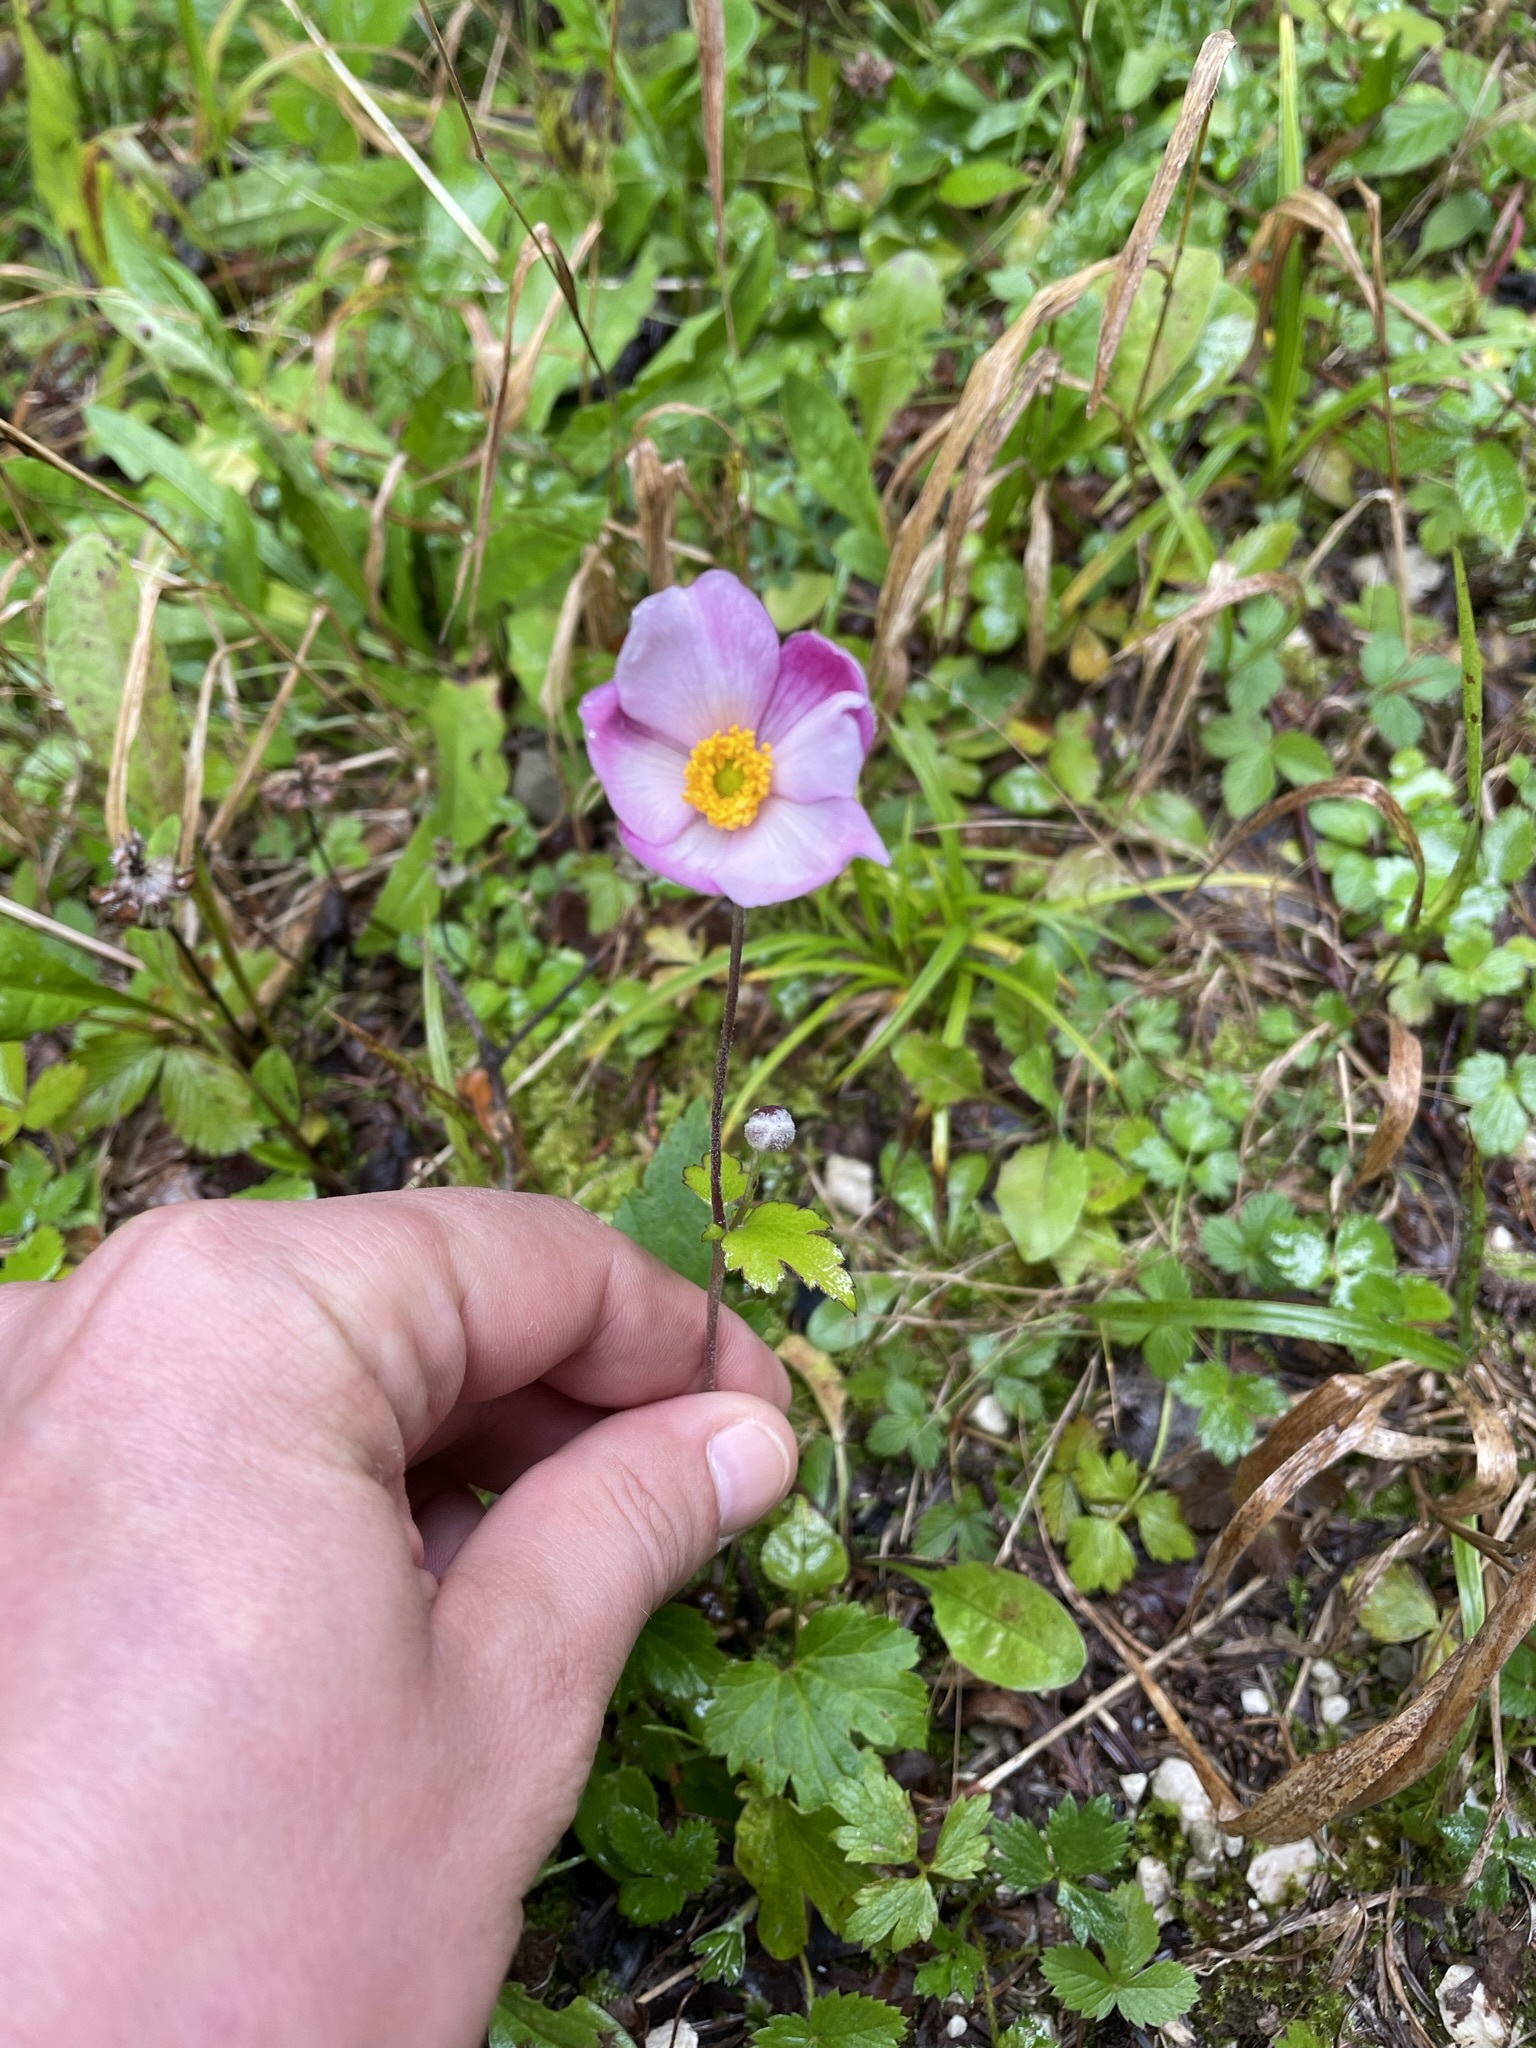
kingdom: Plantae
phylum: Tracheophyta
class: Magnoliopsida
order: Ranunculales
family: Ranunculaceae
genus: Eriocapitella
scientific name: Eriocapitella hupehensis
